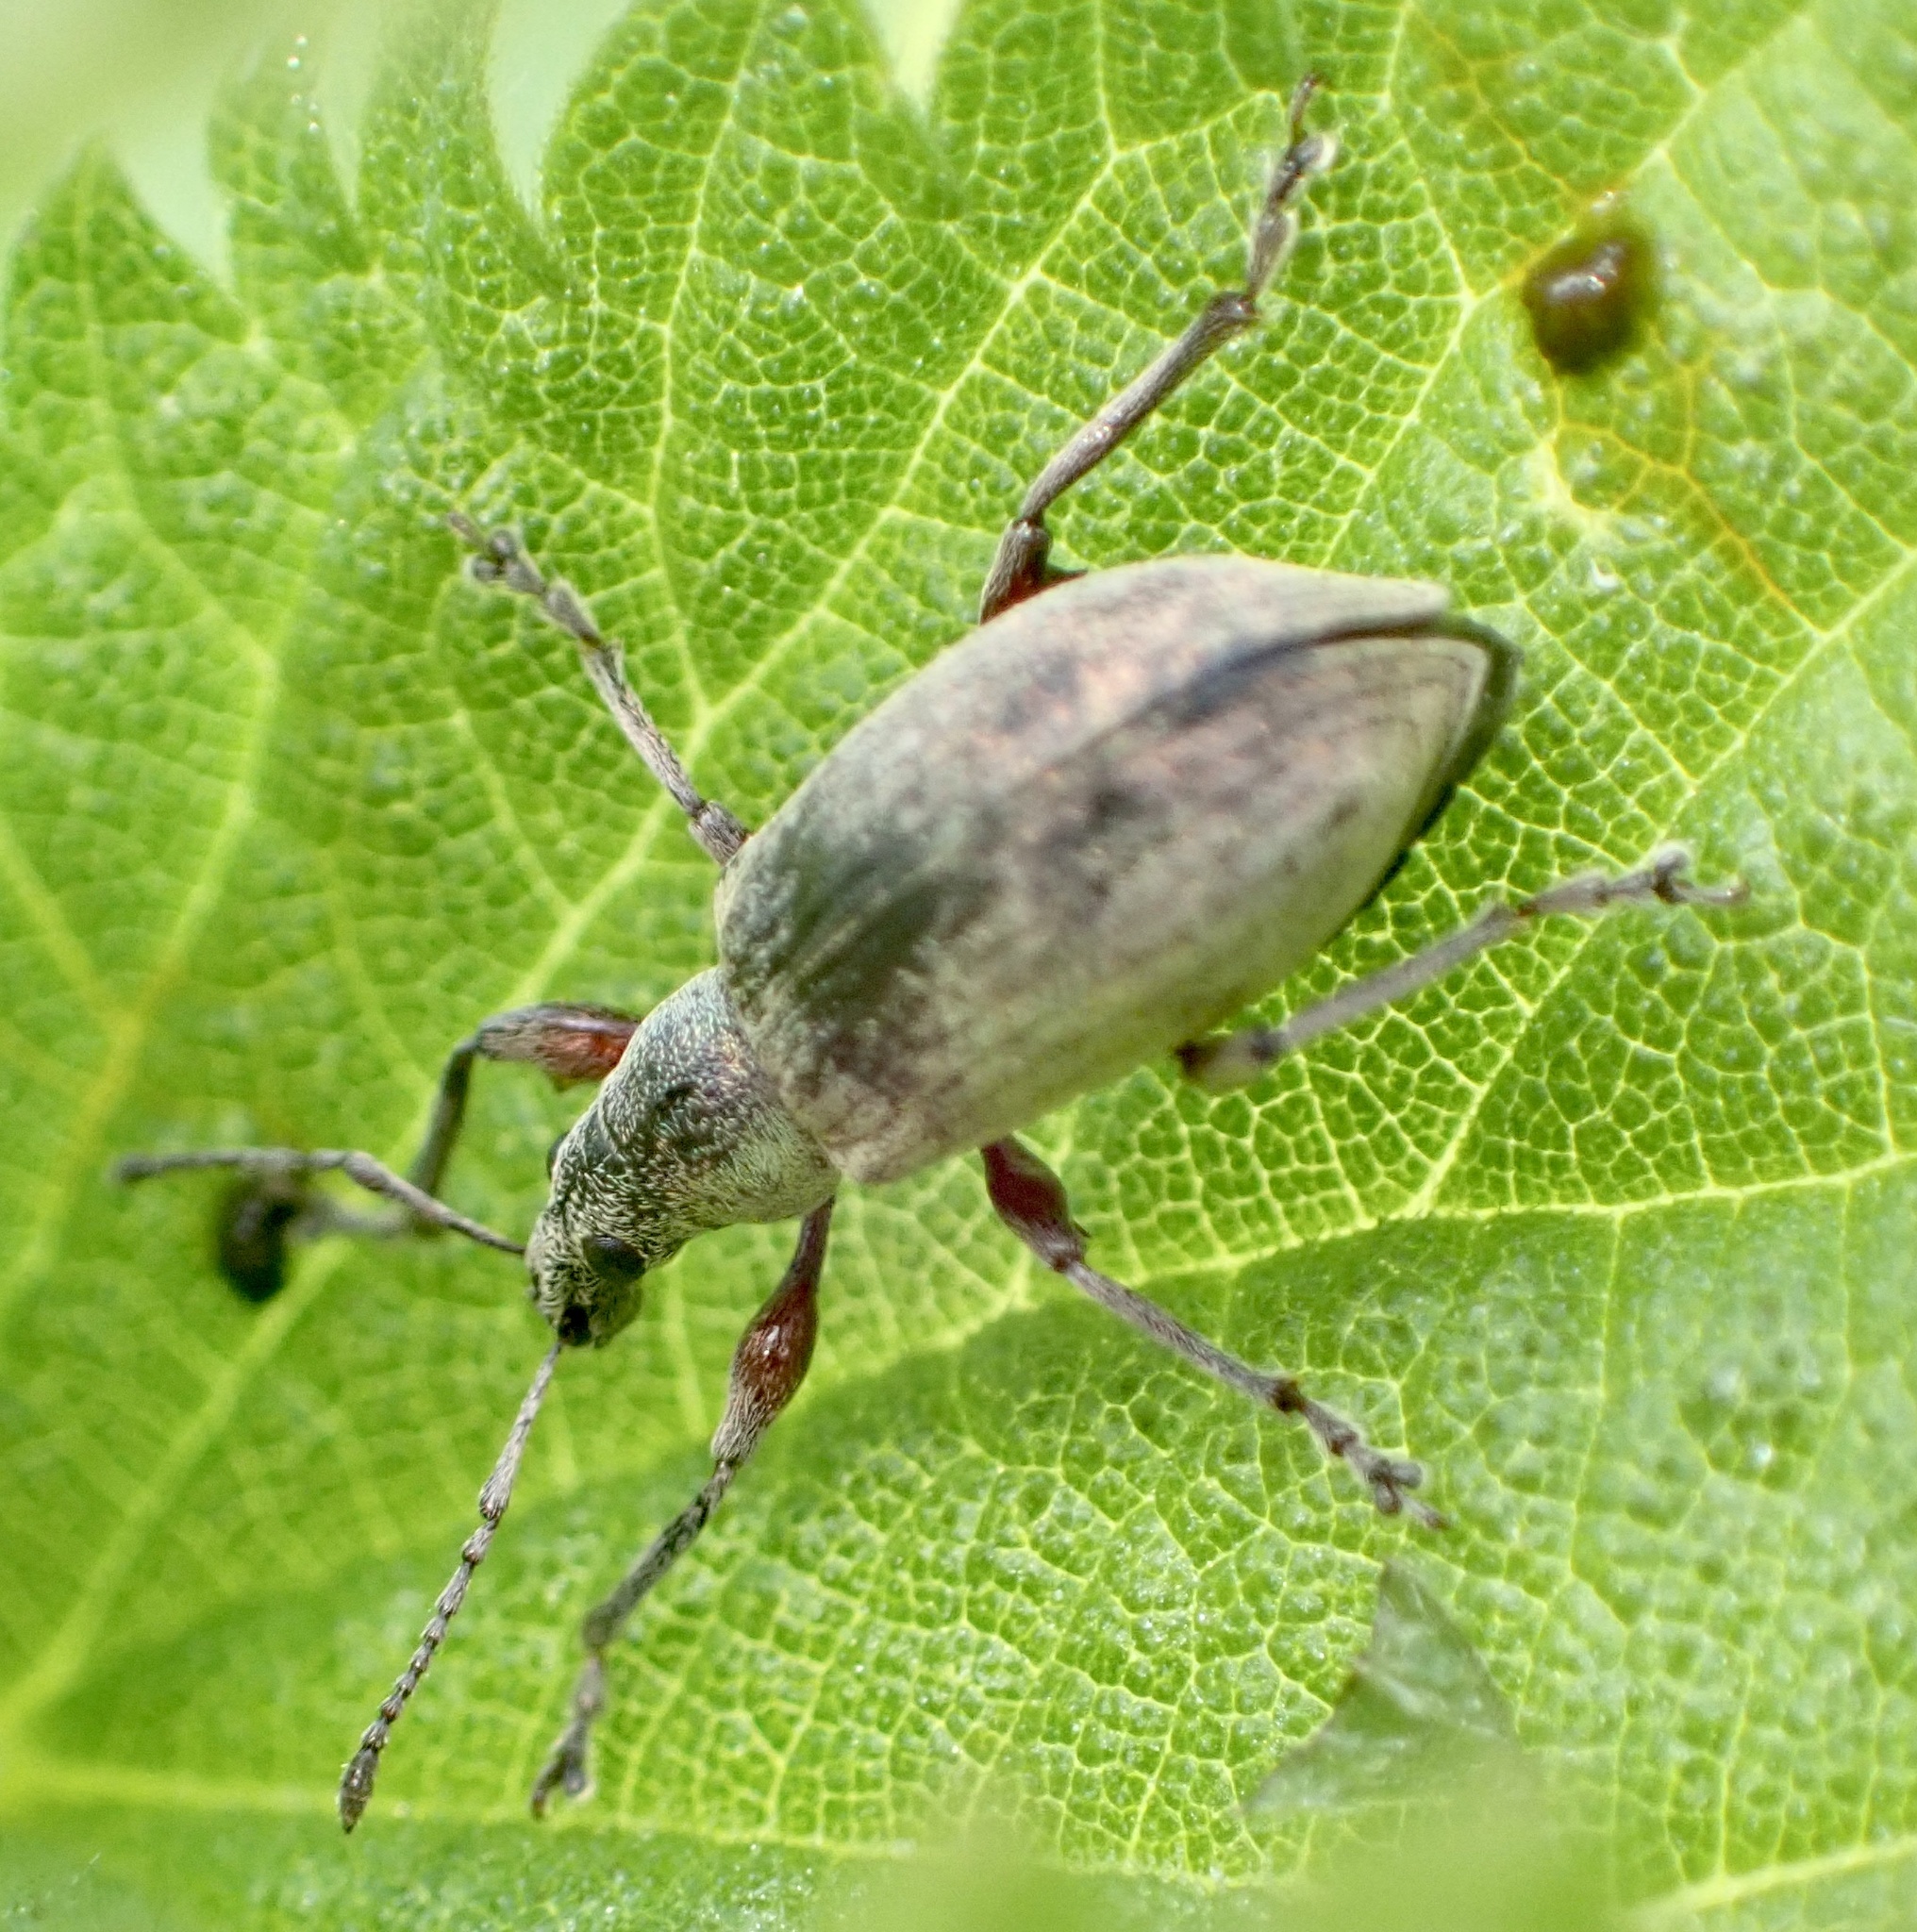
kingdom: Animalia
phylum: Arthropoda
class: Insecta
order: Coleoptera
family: Curculionidae
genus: Phyllobius
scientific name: Phyllobius pomaceus
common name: Green nettle weevil
